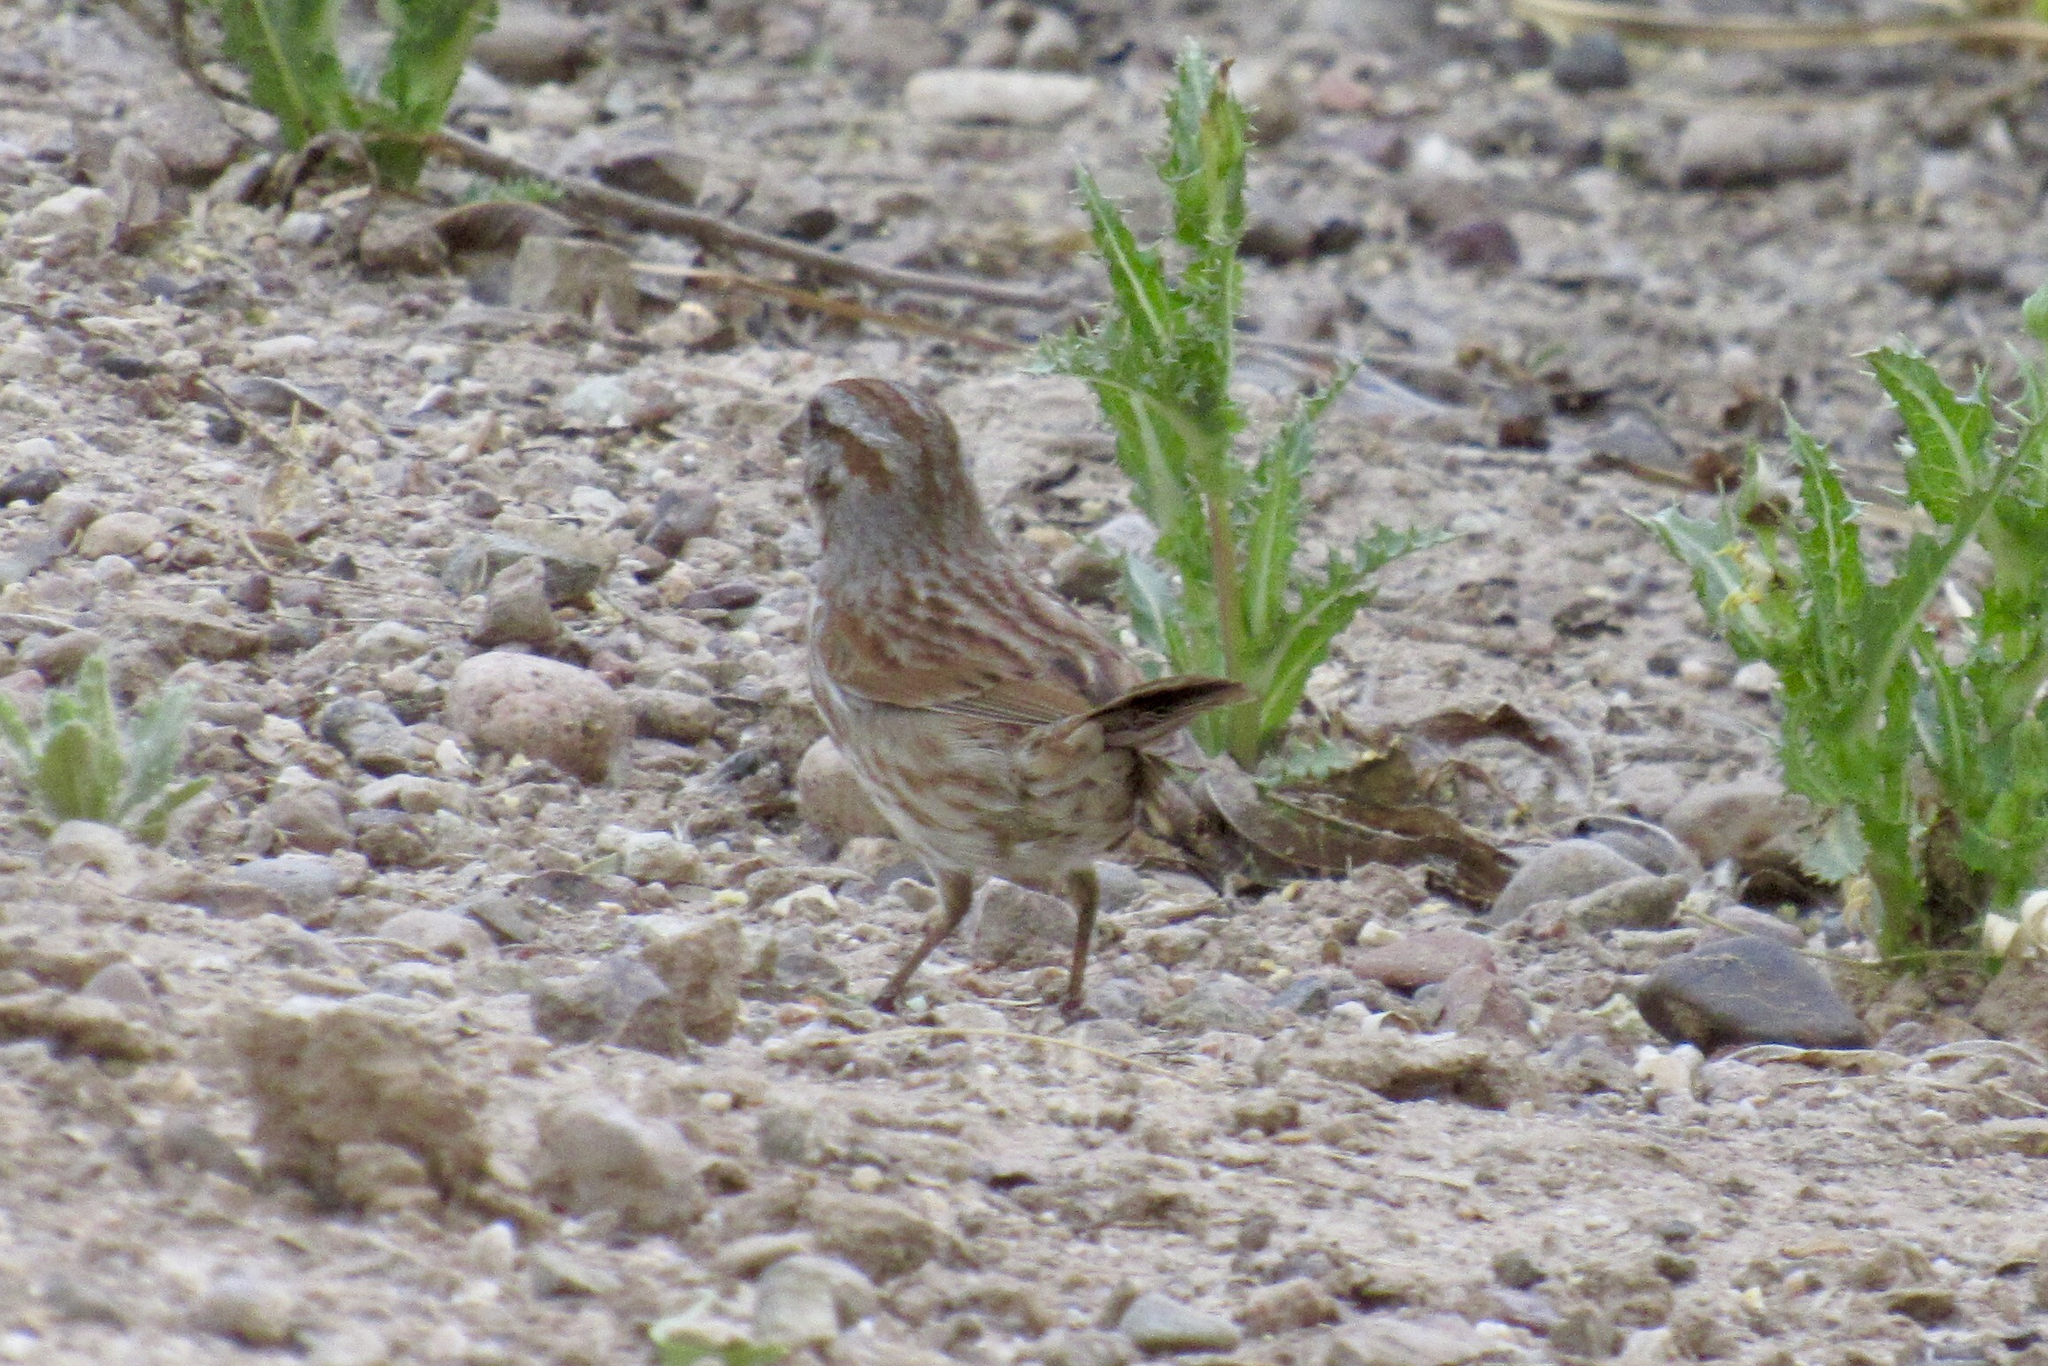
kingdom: Animalia
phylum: Chordata
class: Aves
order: Passeriformes
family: Passerellidae
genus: Melospiza
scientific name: Melospiza melodia
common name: Song sparrow
